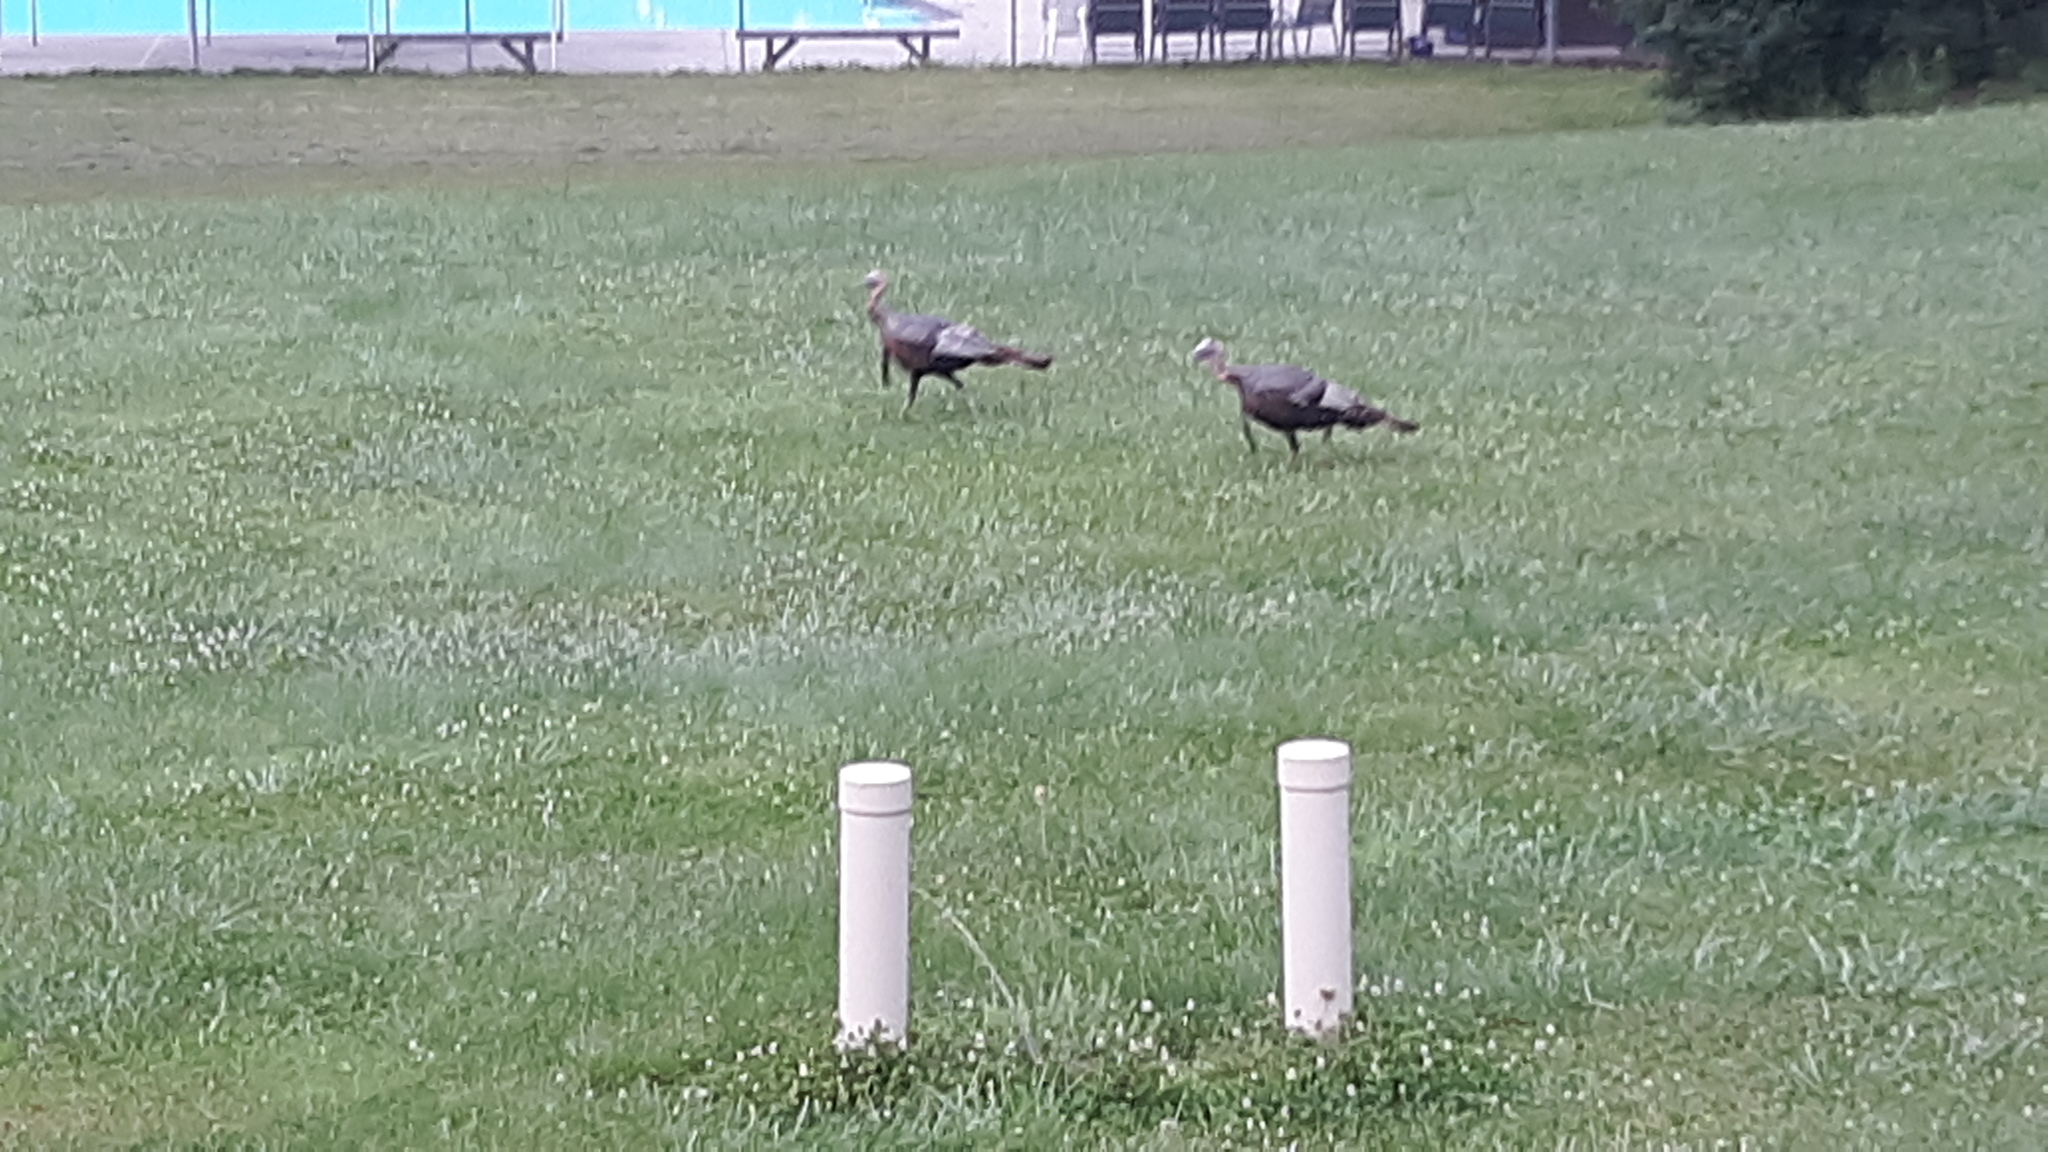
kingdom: Animalia
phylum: Chordata
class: Aves
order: Galliformes
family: Phasianidae
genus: Meleagris
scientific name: Meleagris gallopavo
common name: Wild turkey
